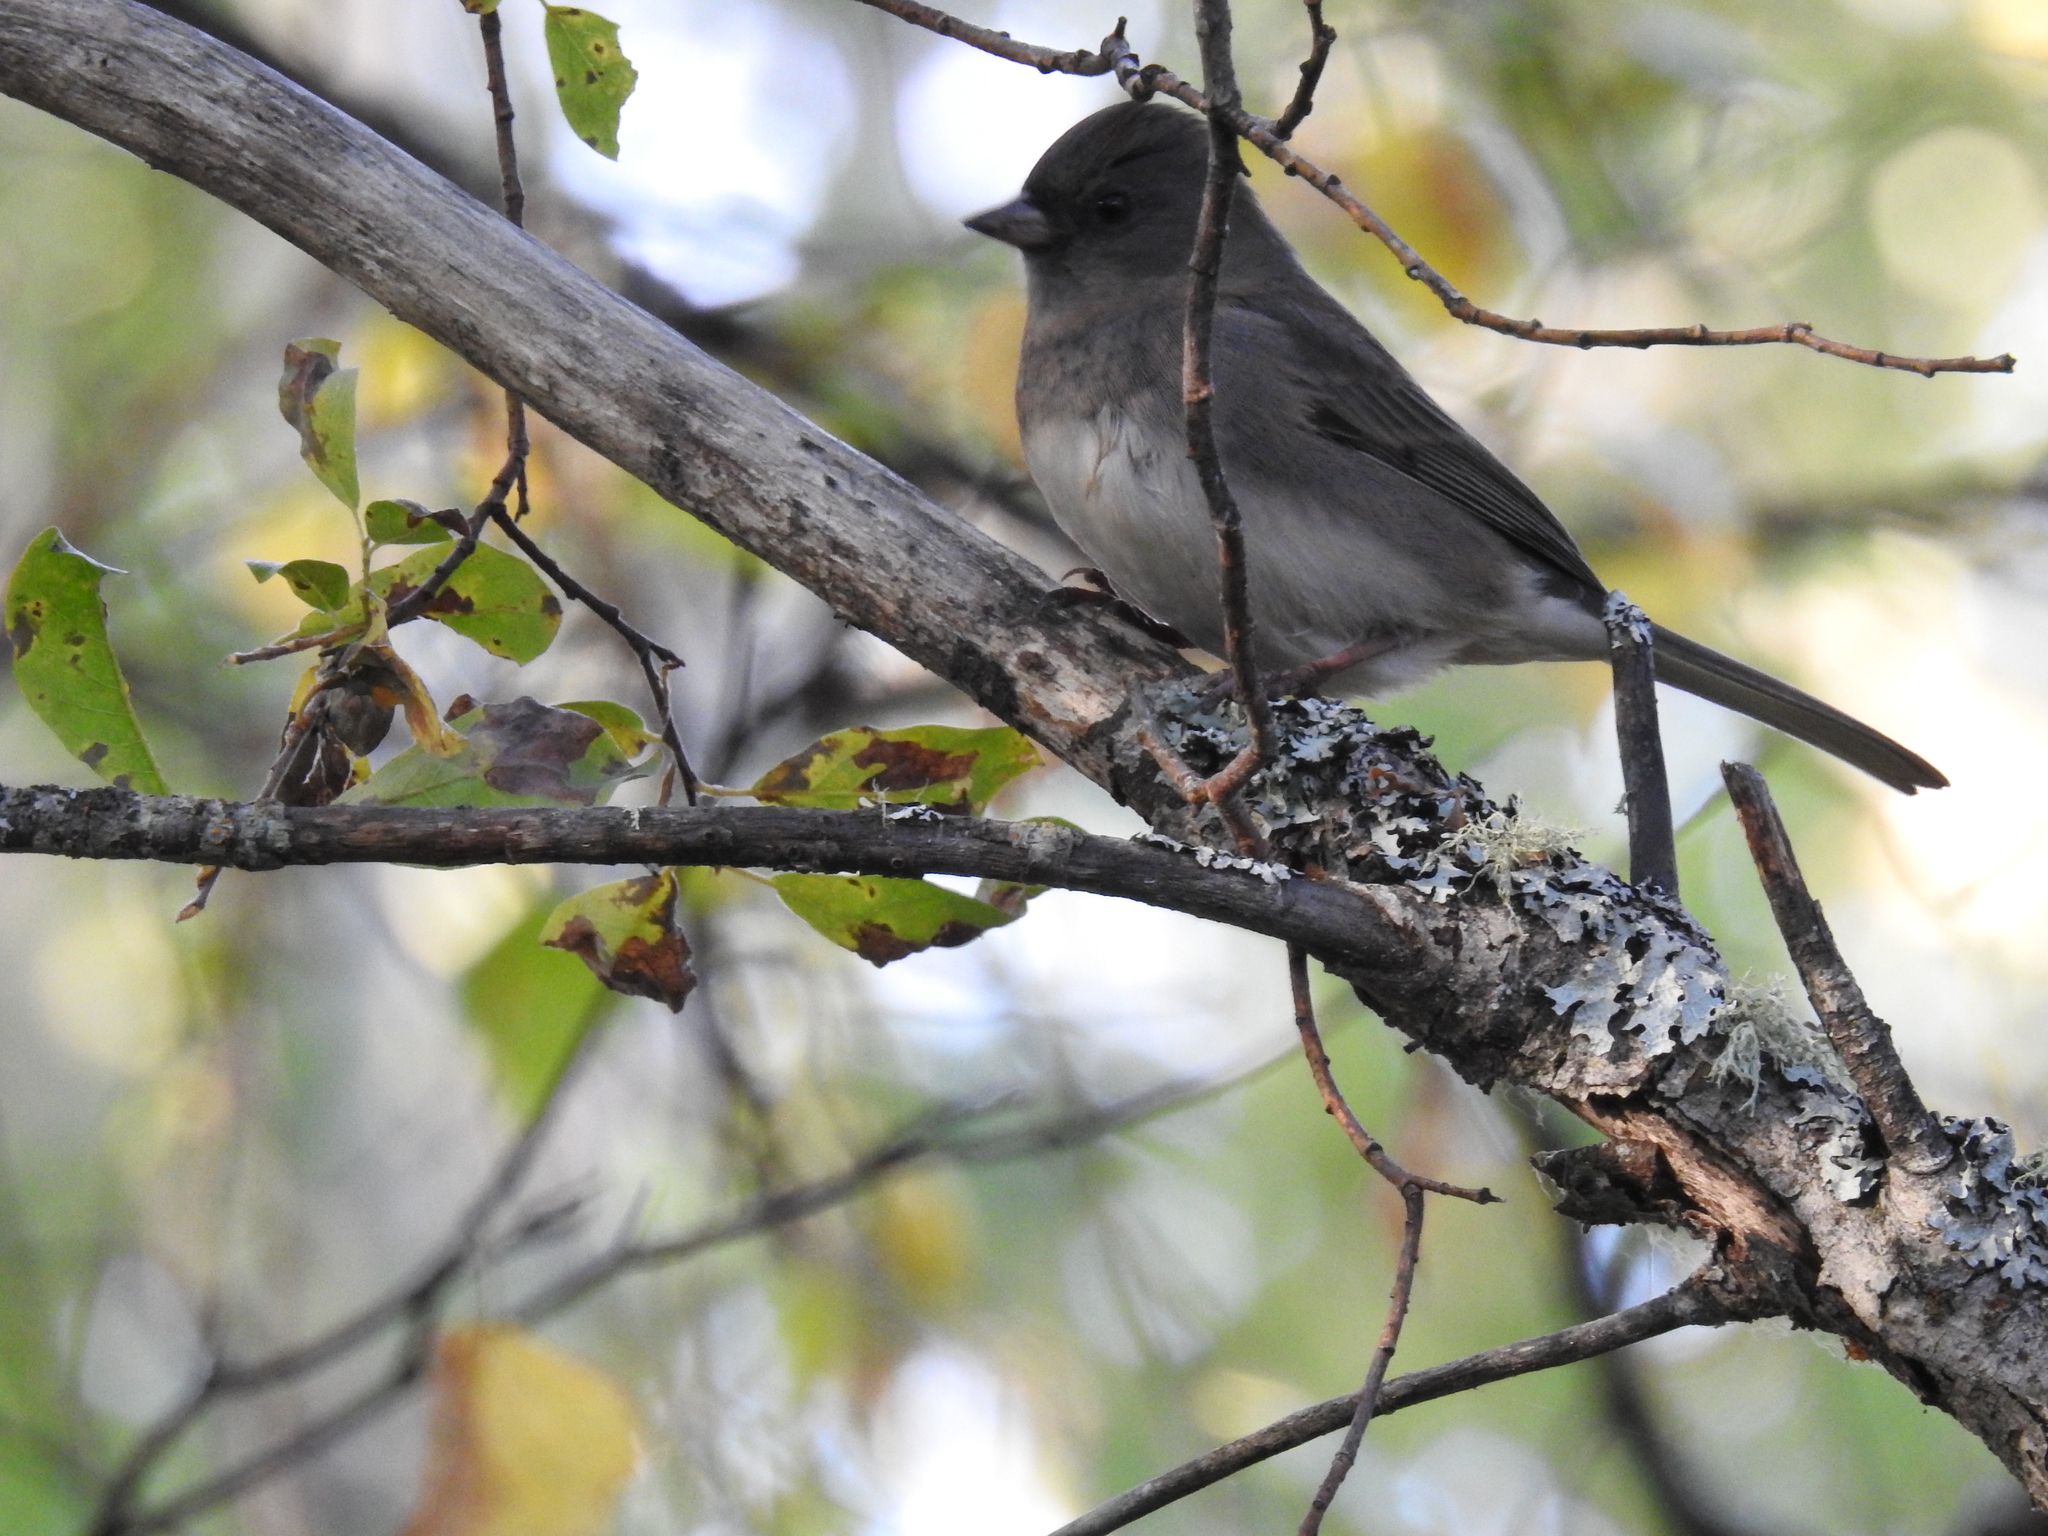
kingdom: Animalia
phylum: Chordata
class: Aves
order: Passeriformes
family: Passerellidae
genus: Junco
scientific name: Junco hyemalis
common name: Dark-eyed junco
